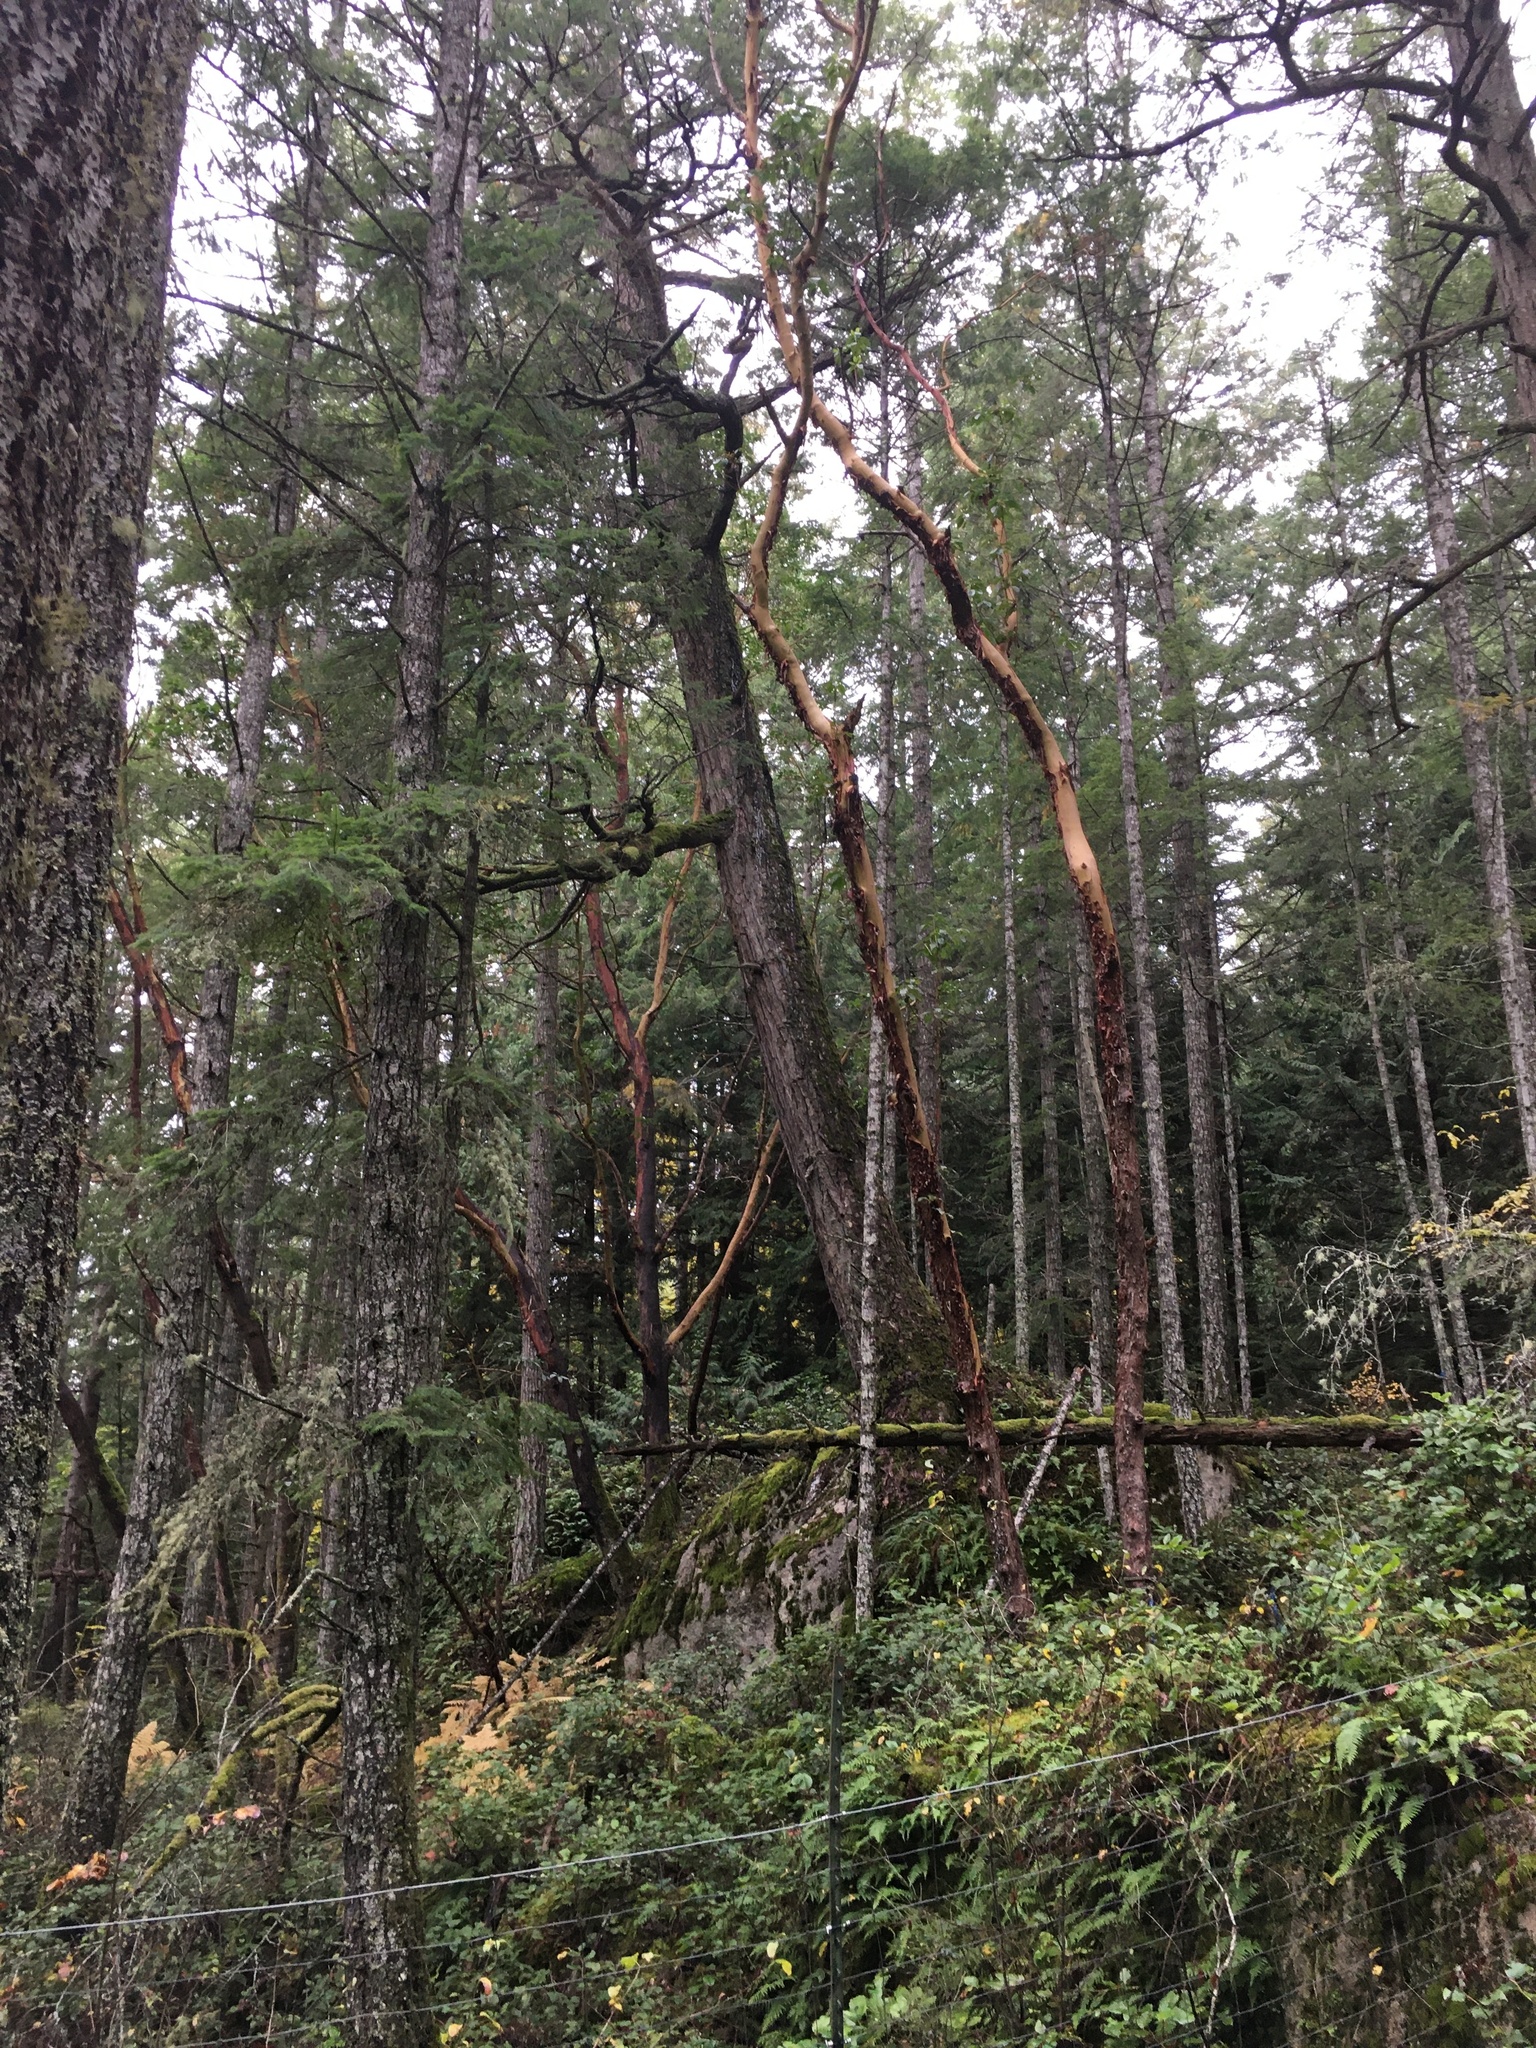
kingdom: Plantae
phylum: Tracheophyta
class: Magnoliopsida
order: Ericales
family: Ericaceae
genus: Arbutus
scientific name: Arbutus menziesii
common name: Pacific madrone
